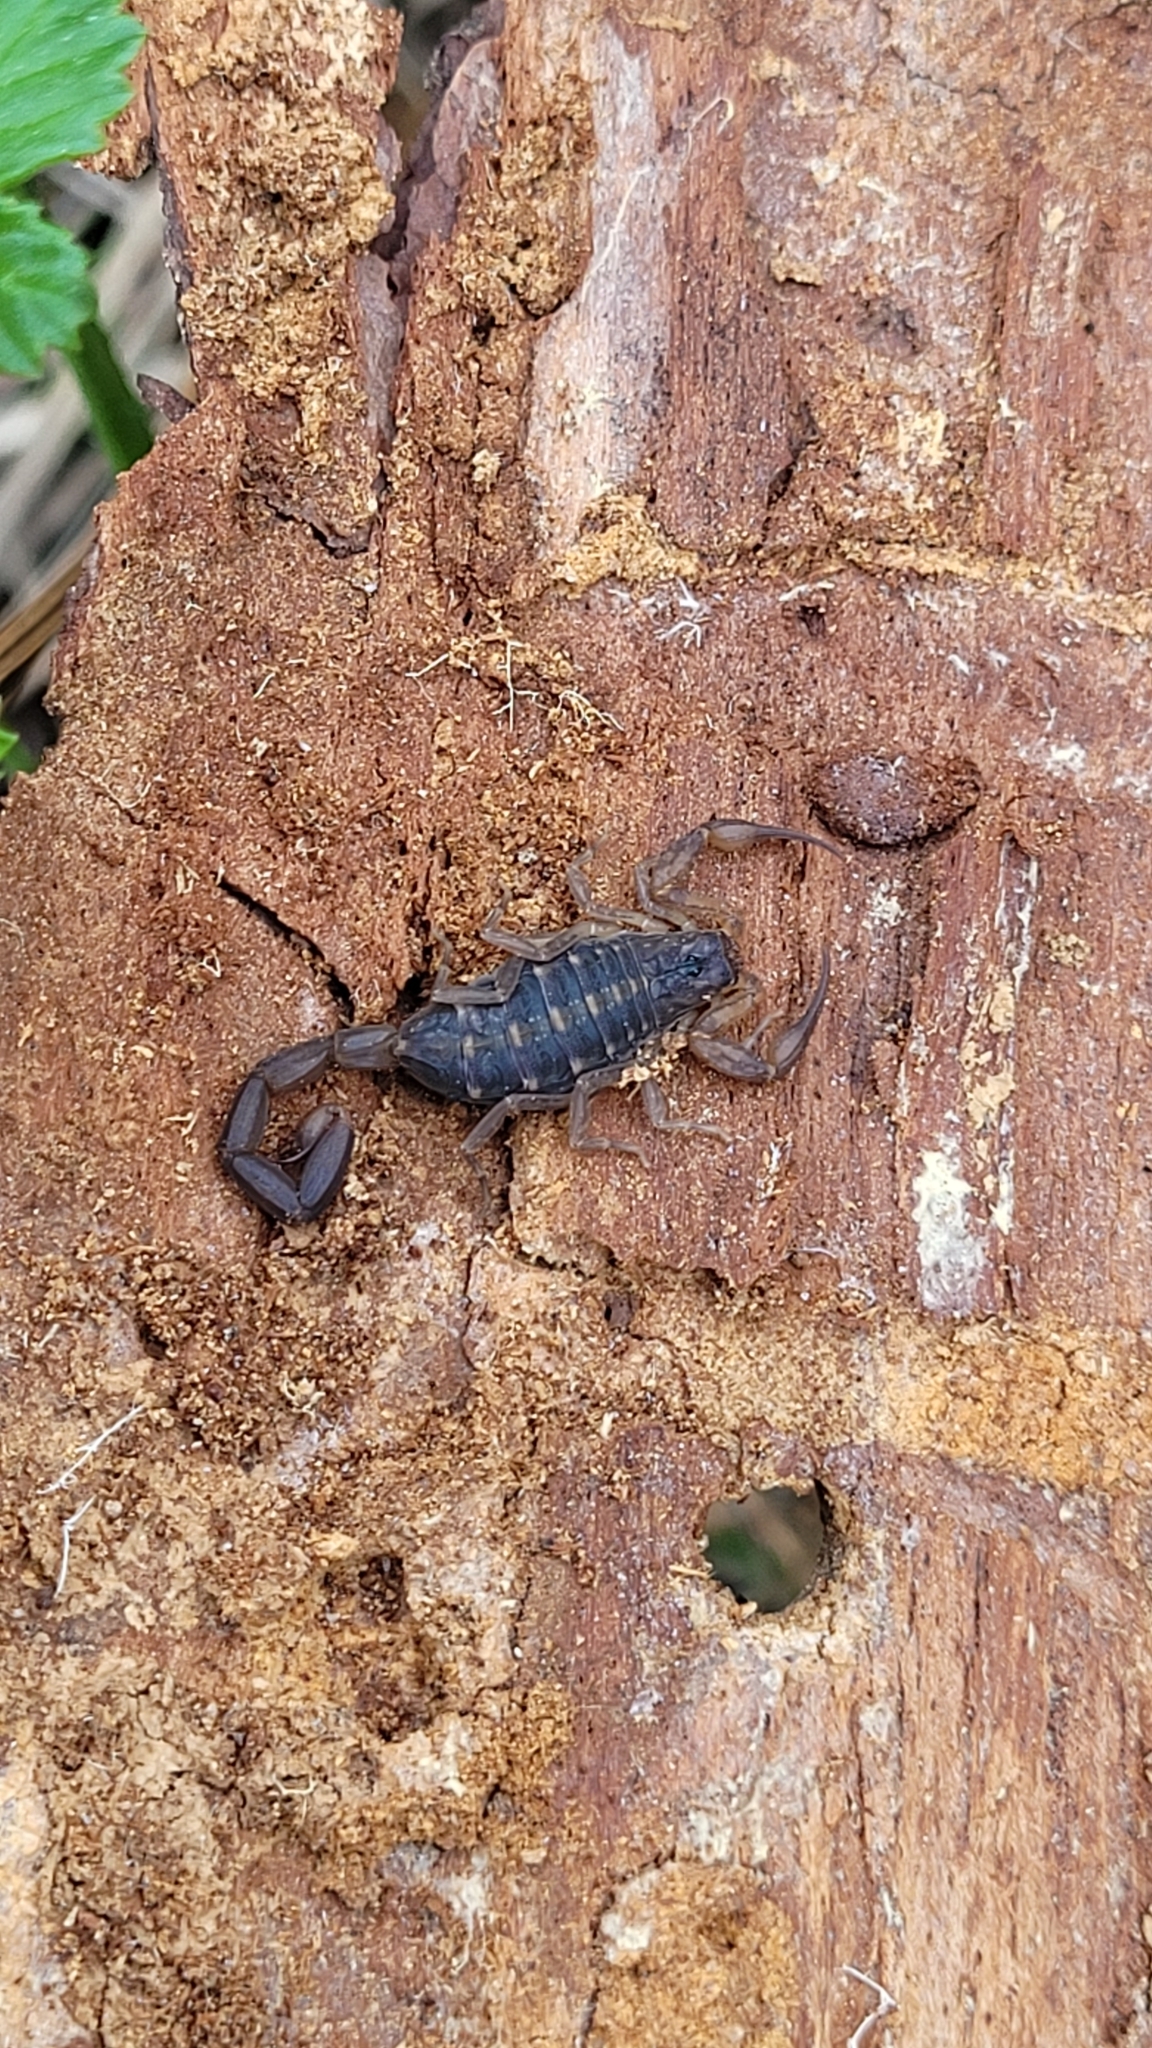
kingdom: Animalia
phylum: Arthropoda
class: Arachnida
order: Scorpiones
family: Buthidae
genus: Centruroides
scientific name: Centruroides hentzi
